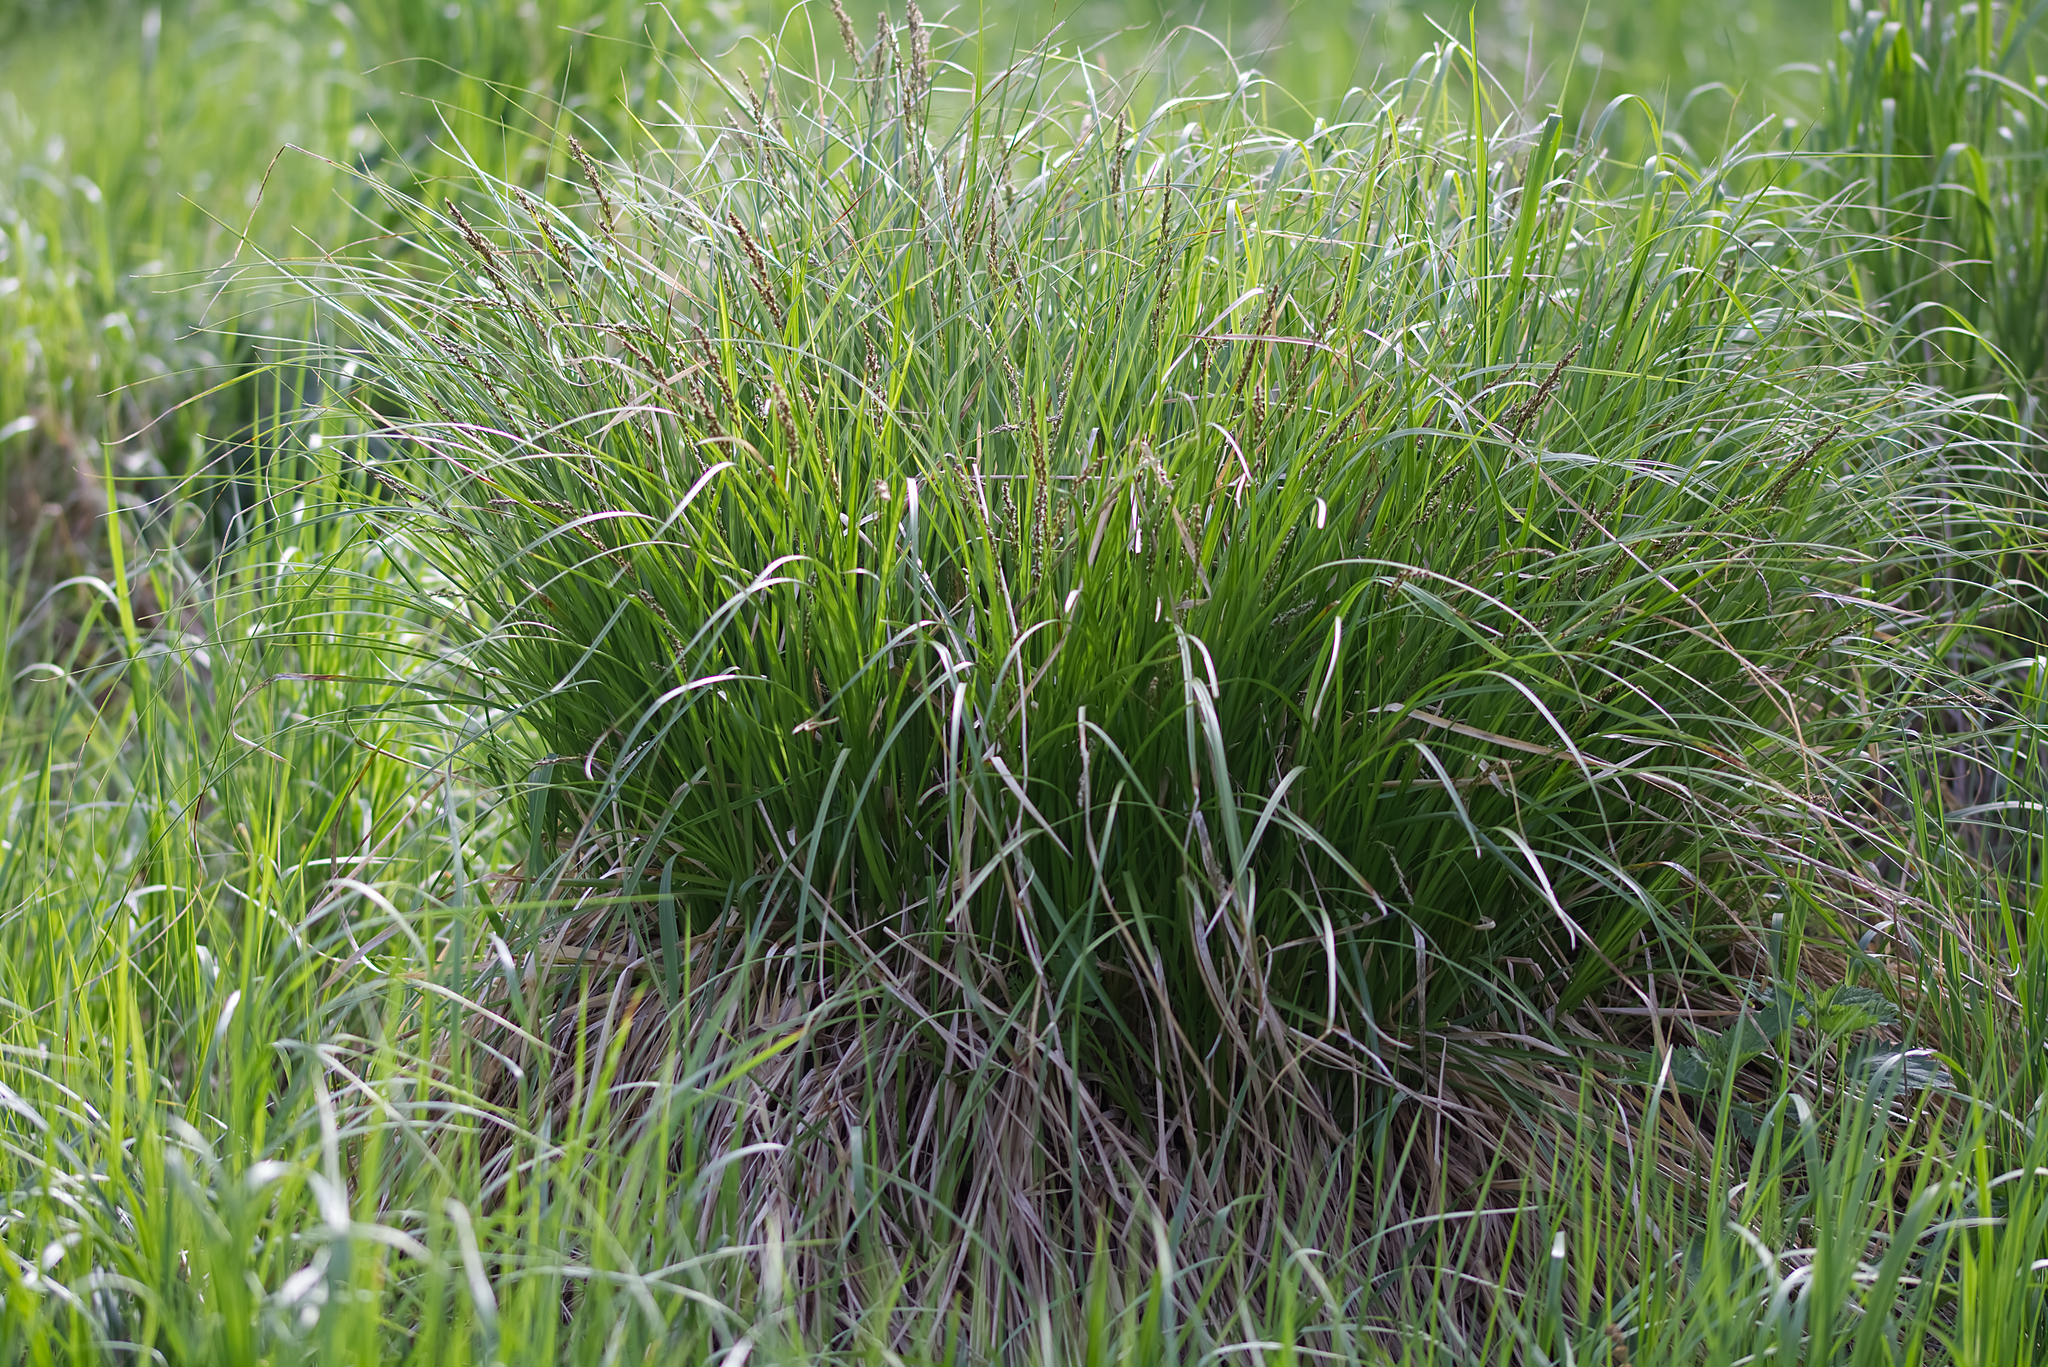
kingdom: Plantae
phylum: Tracheophyta
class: Liliopsida
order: Poales
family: Cyperaceae
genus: Carex
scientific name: Carex paniculata
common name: Greater tussock-sedge
